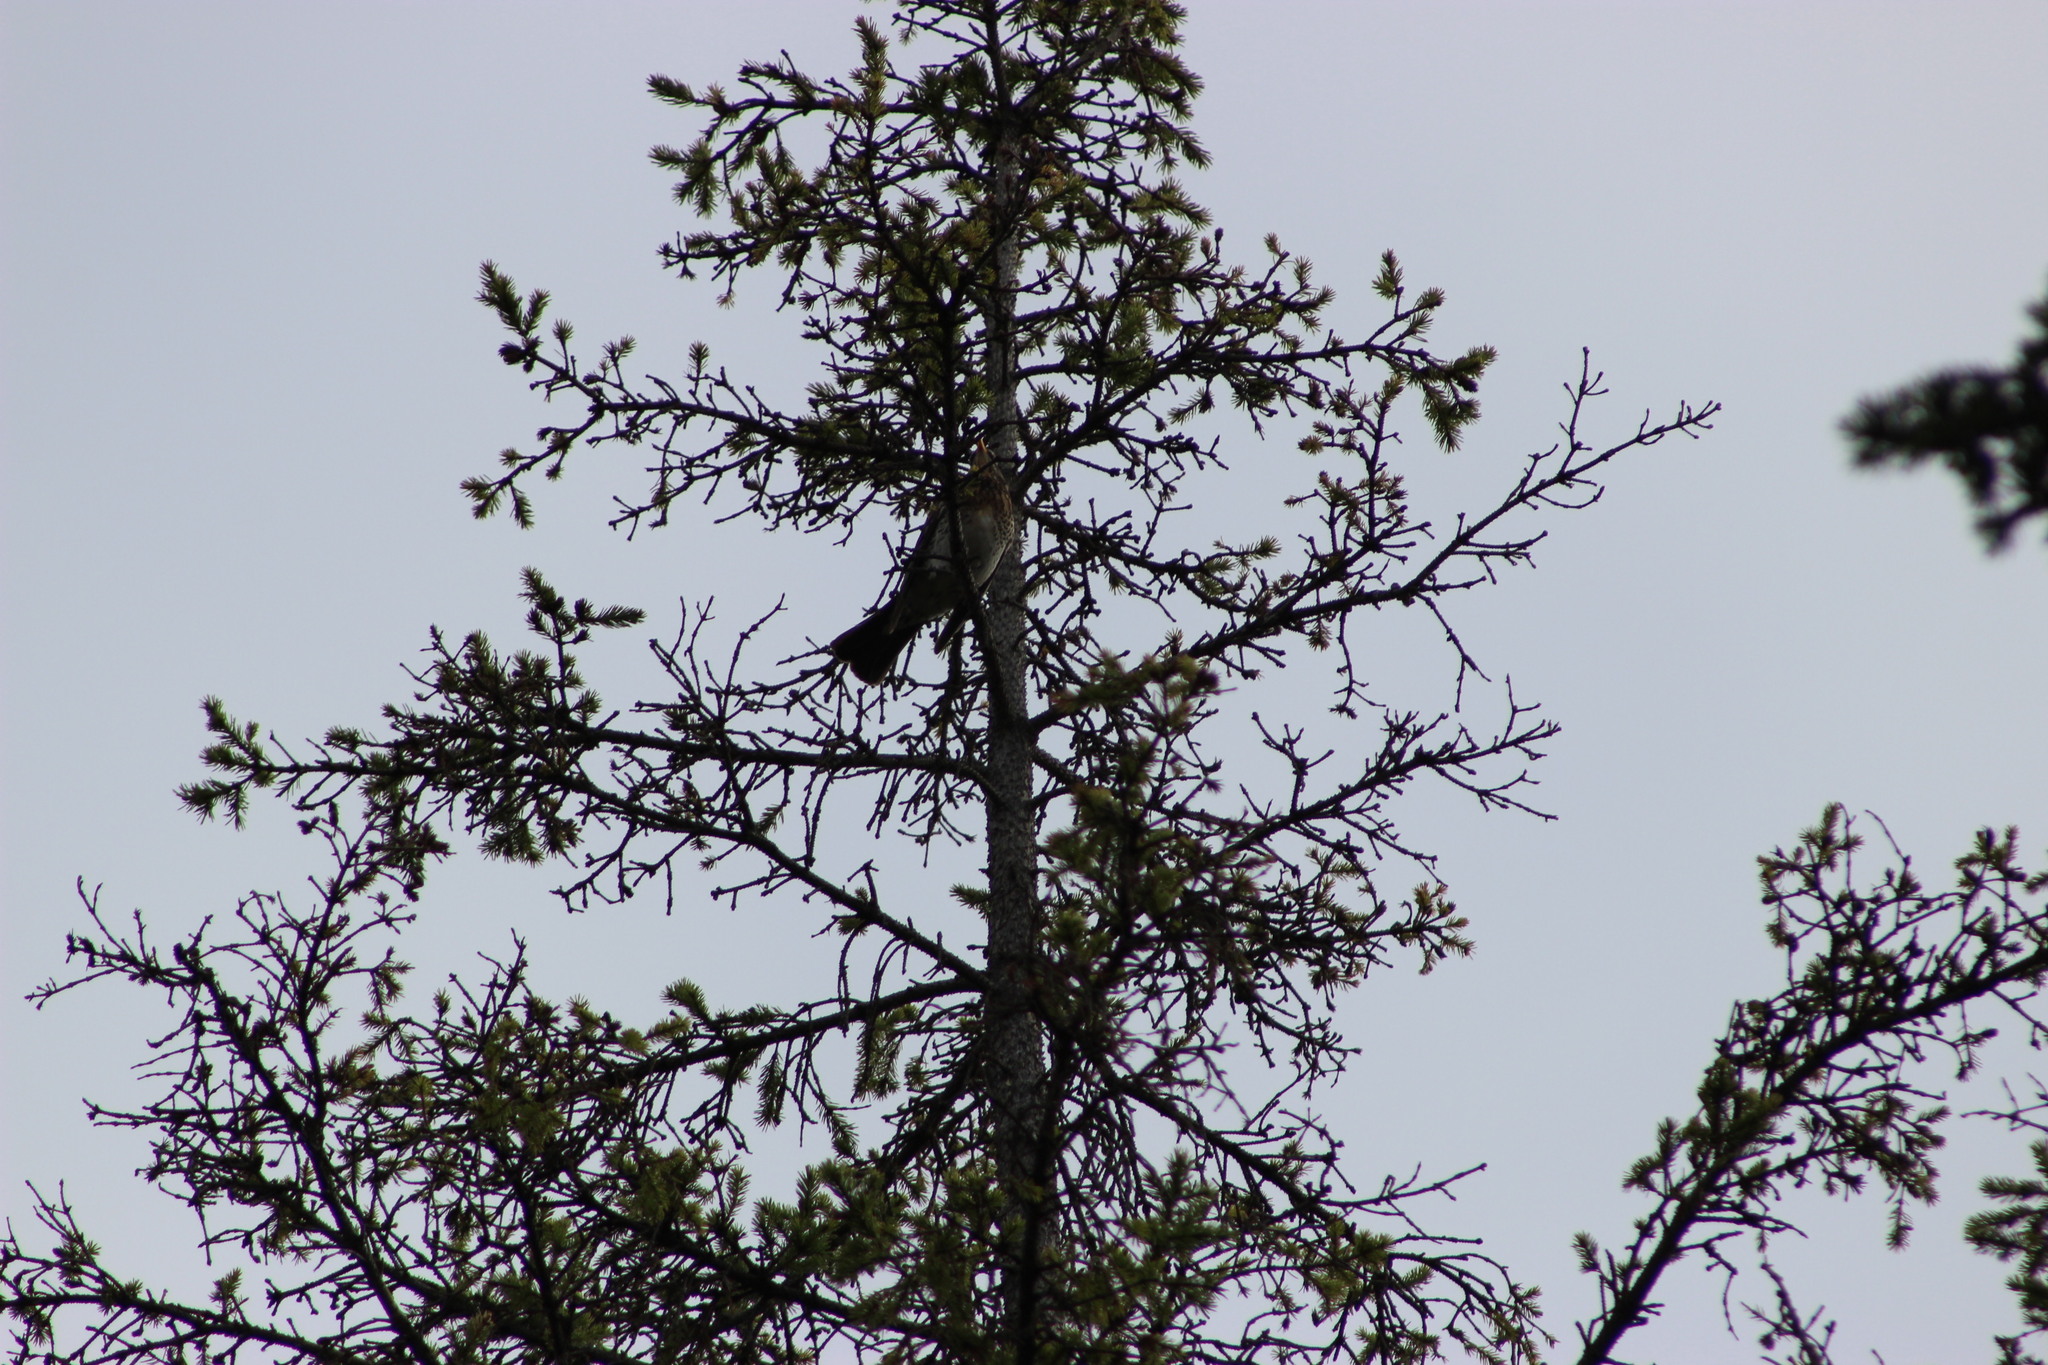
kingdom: Animalia
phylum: Chordata
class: Aves
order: Passeriformes
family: Turdidae
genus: Turdus
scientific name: Turdus pilaris
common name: Fieldfare
